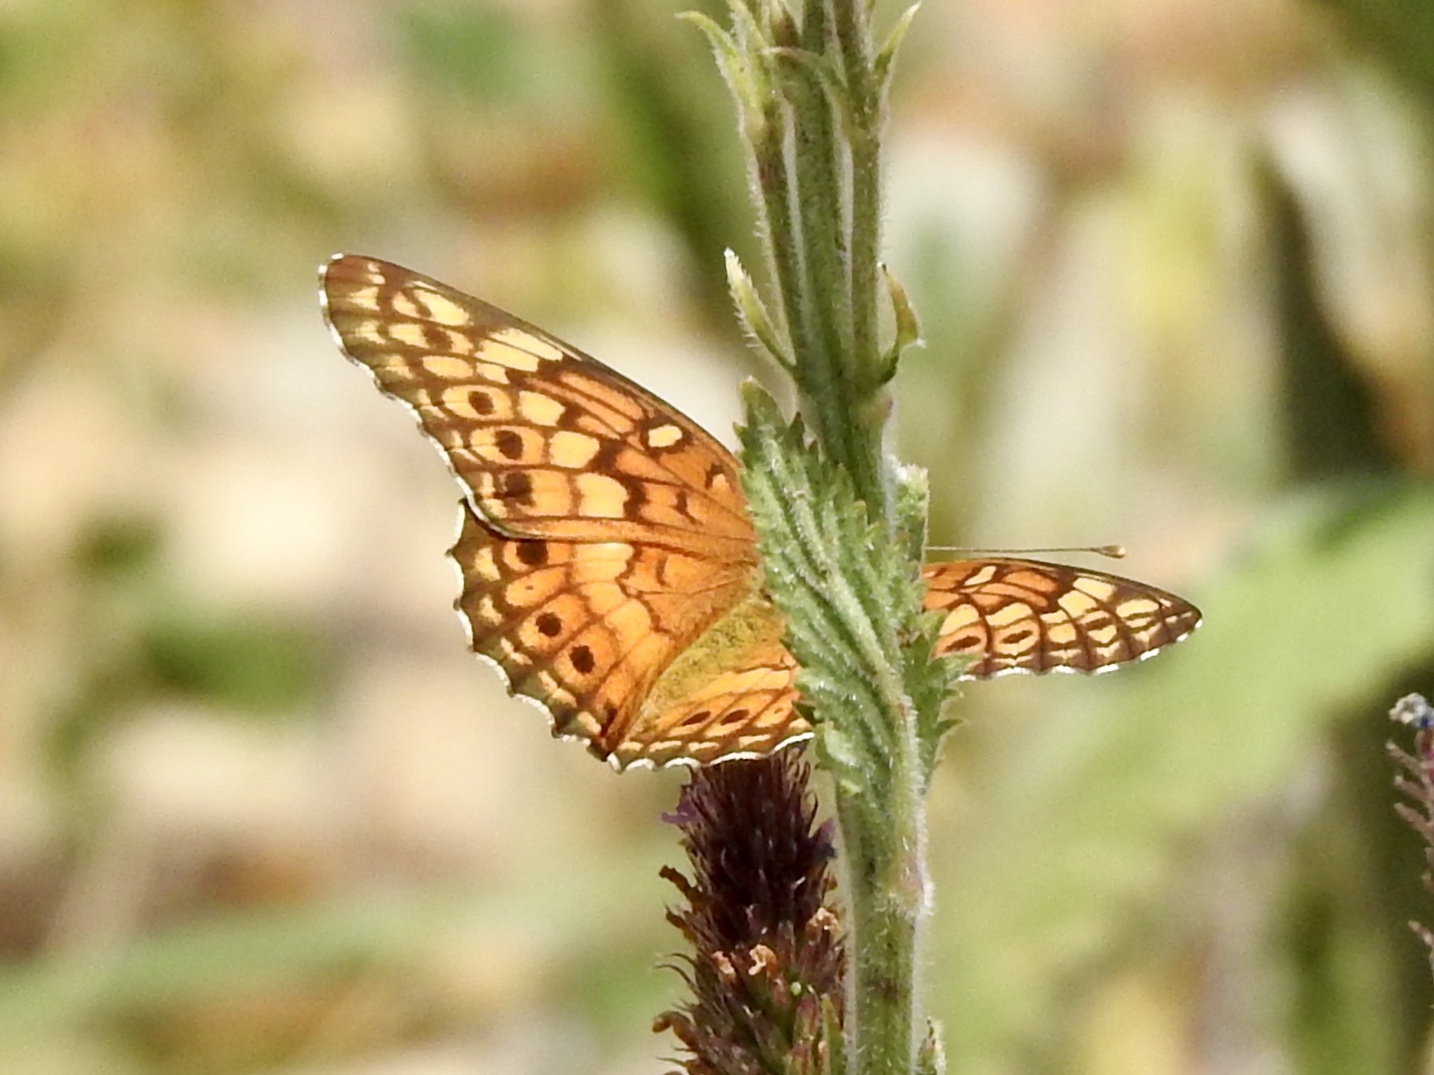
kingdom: Animalia
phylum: Arthropoda
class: Insecta
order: Lepidoptera
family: Nymphalidae
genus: Euptoieta
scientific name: Euptoieta claudia
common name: Variegated fritillary
